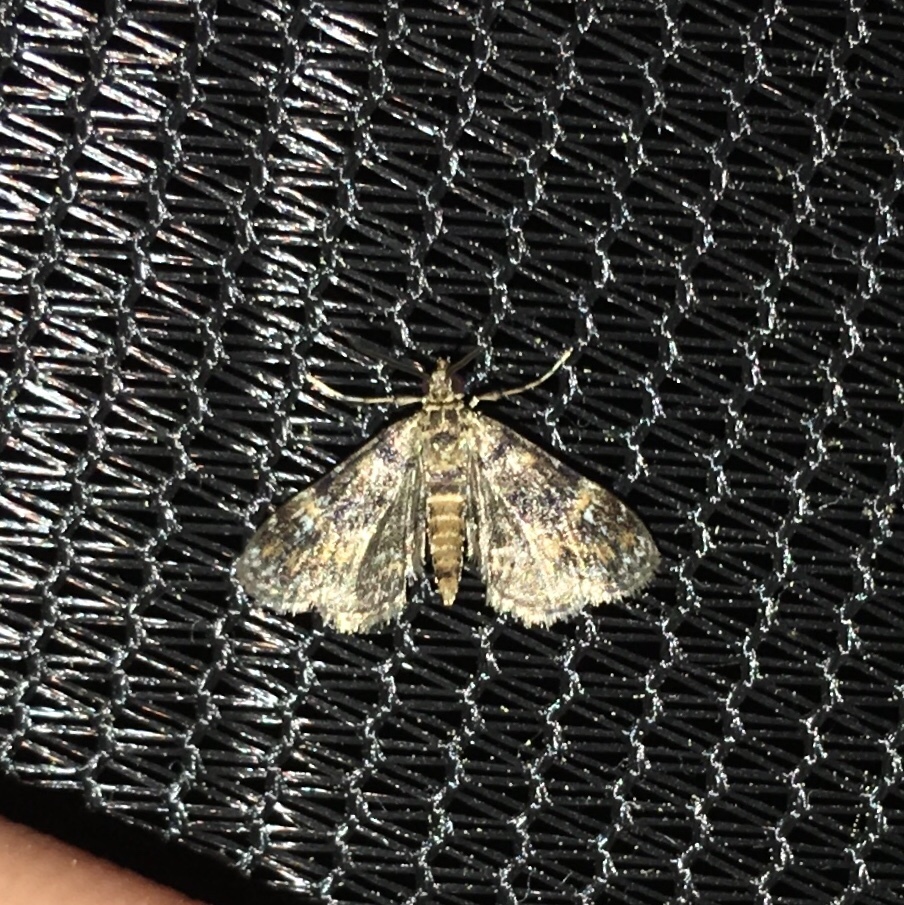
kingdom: Animalia
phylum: Arthropoda
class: Insecta
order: Lepidoptera
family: Crambidae
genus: Elophila
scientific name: Elophila obliteralis
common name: Waterlily leafcutter moth
